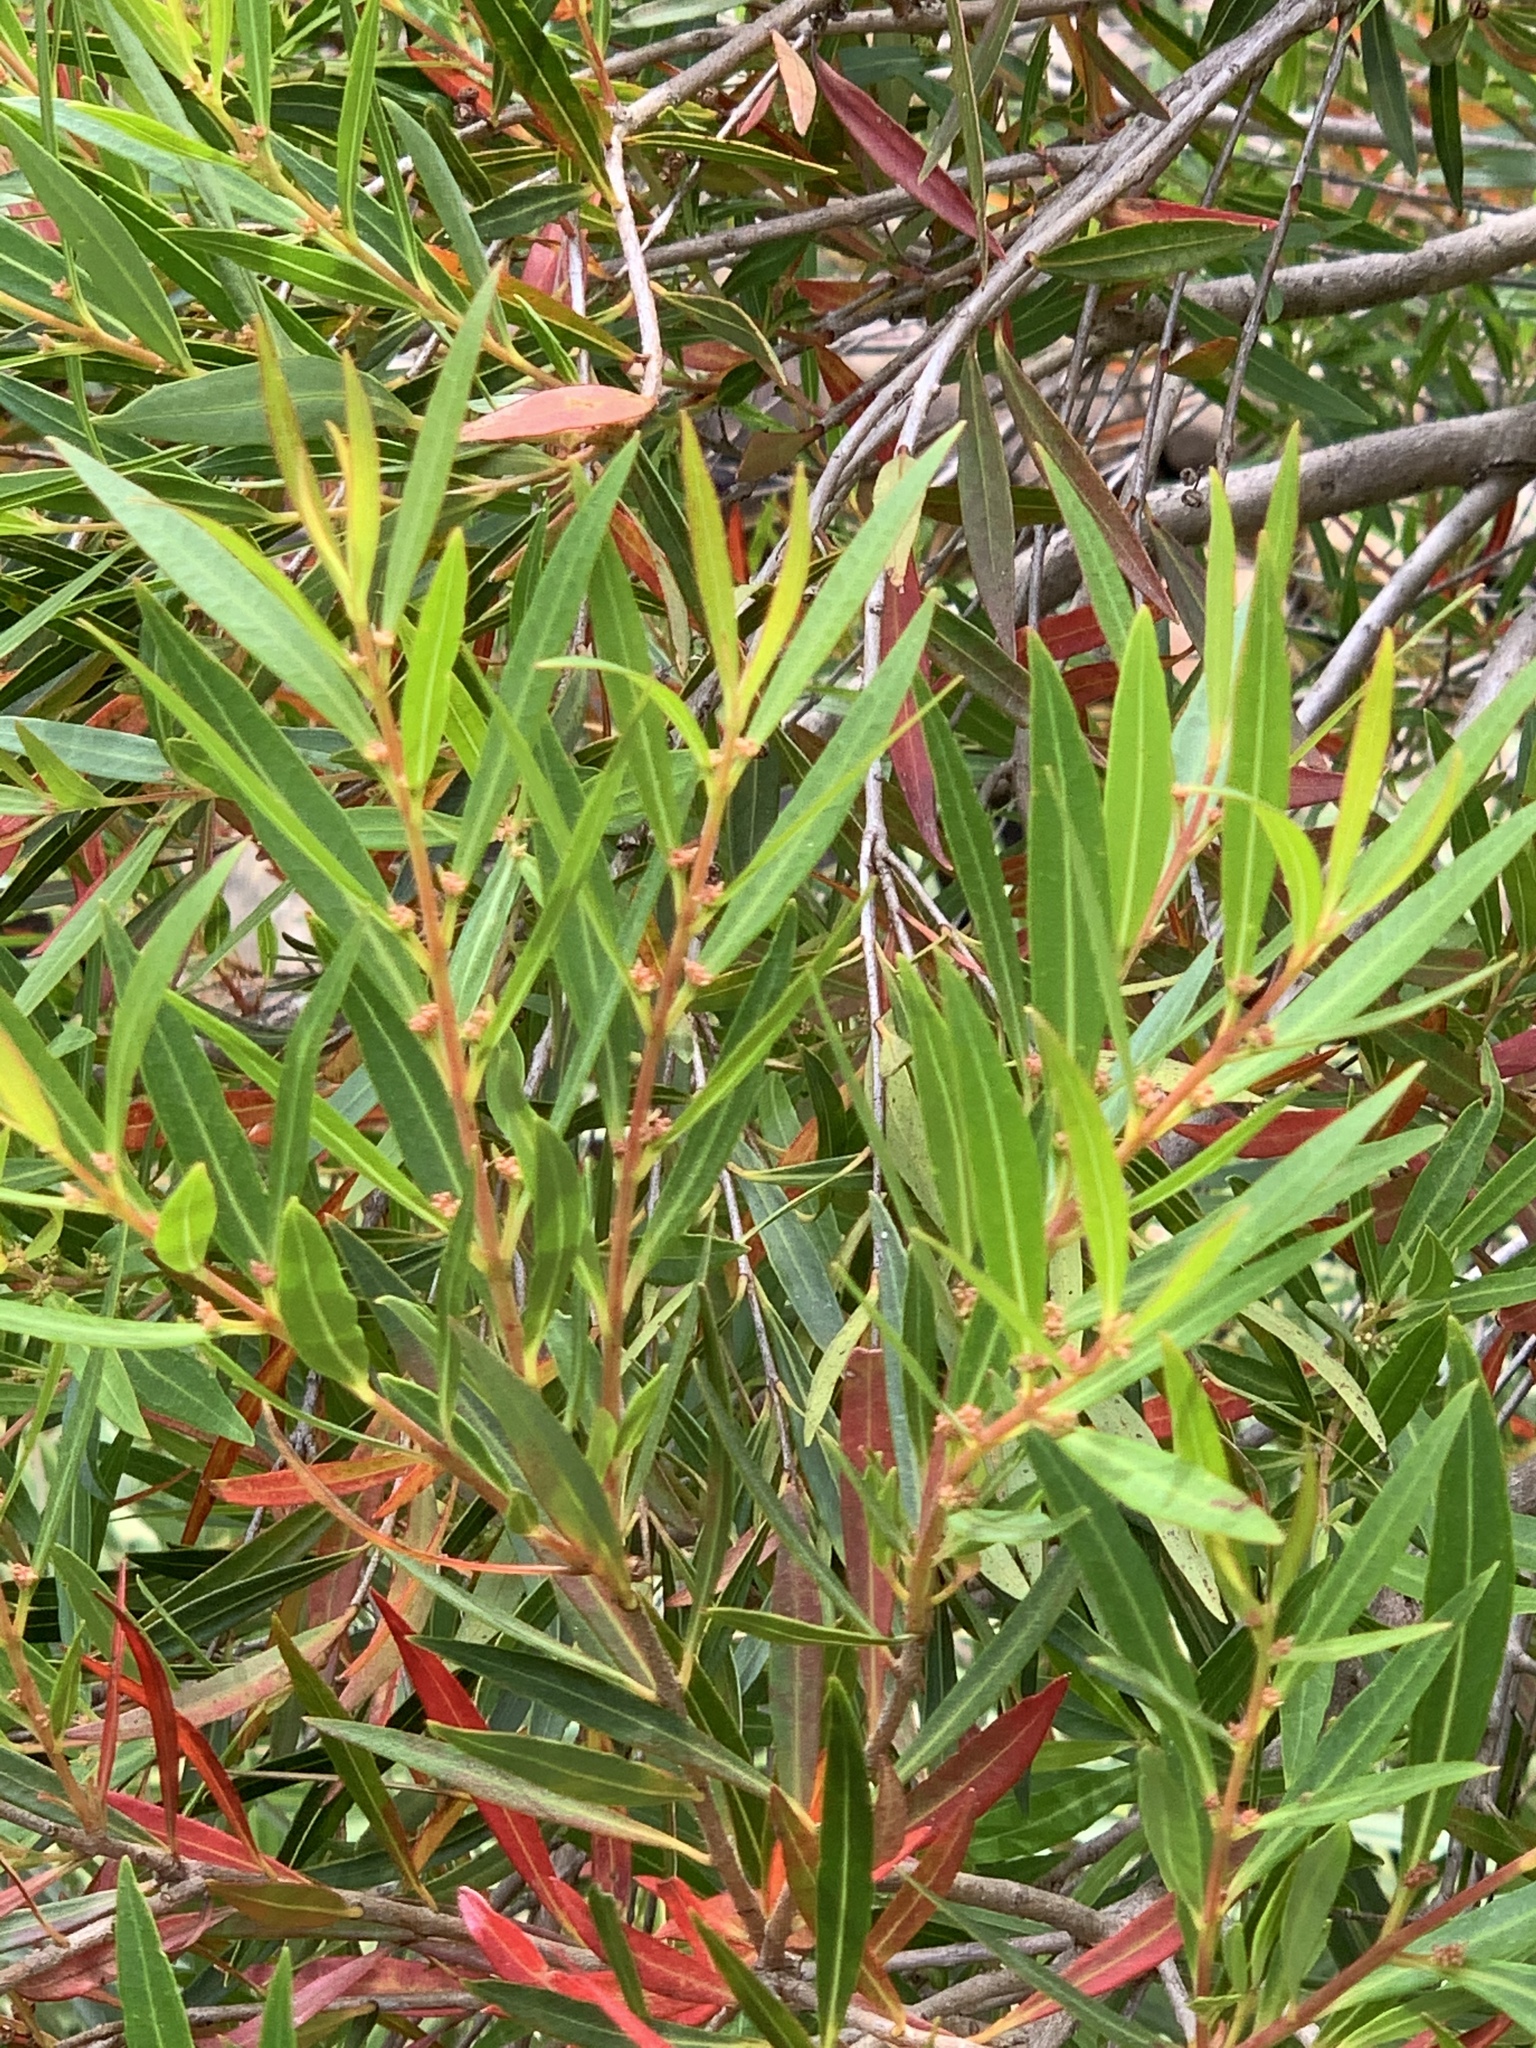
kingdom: Plantae
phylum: Tracheophyta
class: Magnoliopsida
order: Myrtales
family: Myrtaceae
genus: Callistemon
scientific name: Callistemon lanceolatus
